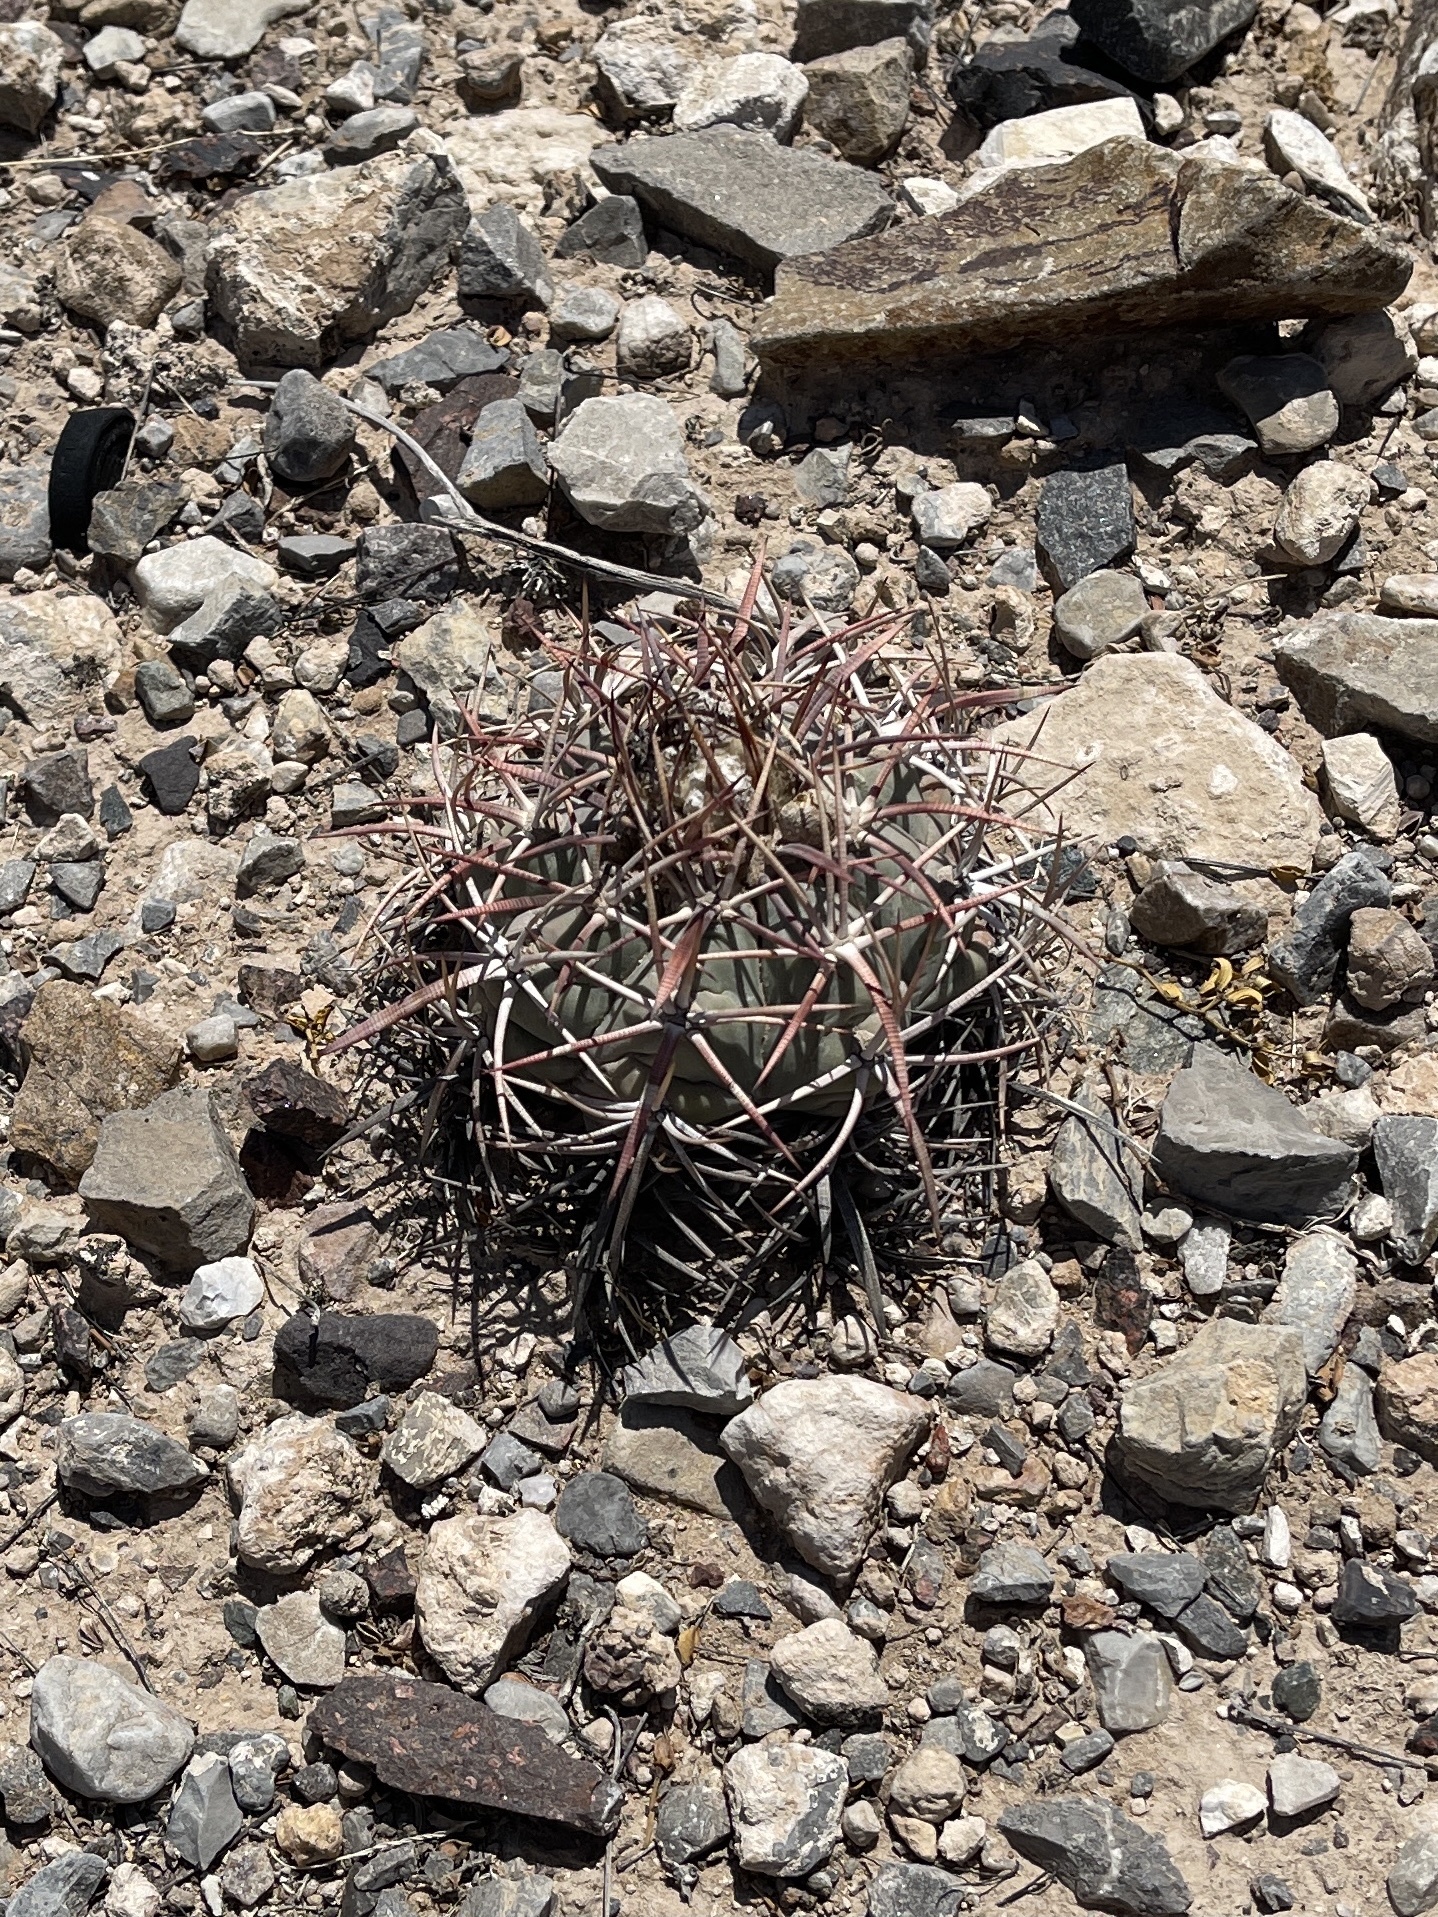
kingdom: Plantae
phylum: Tracheophyta
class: Magnoliopsida
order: Caryophyllales
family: Cactaceae
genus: Echinocactus
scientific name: Echinocactus horizonthalonius
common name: Devilshead
